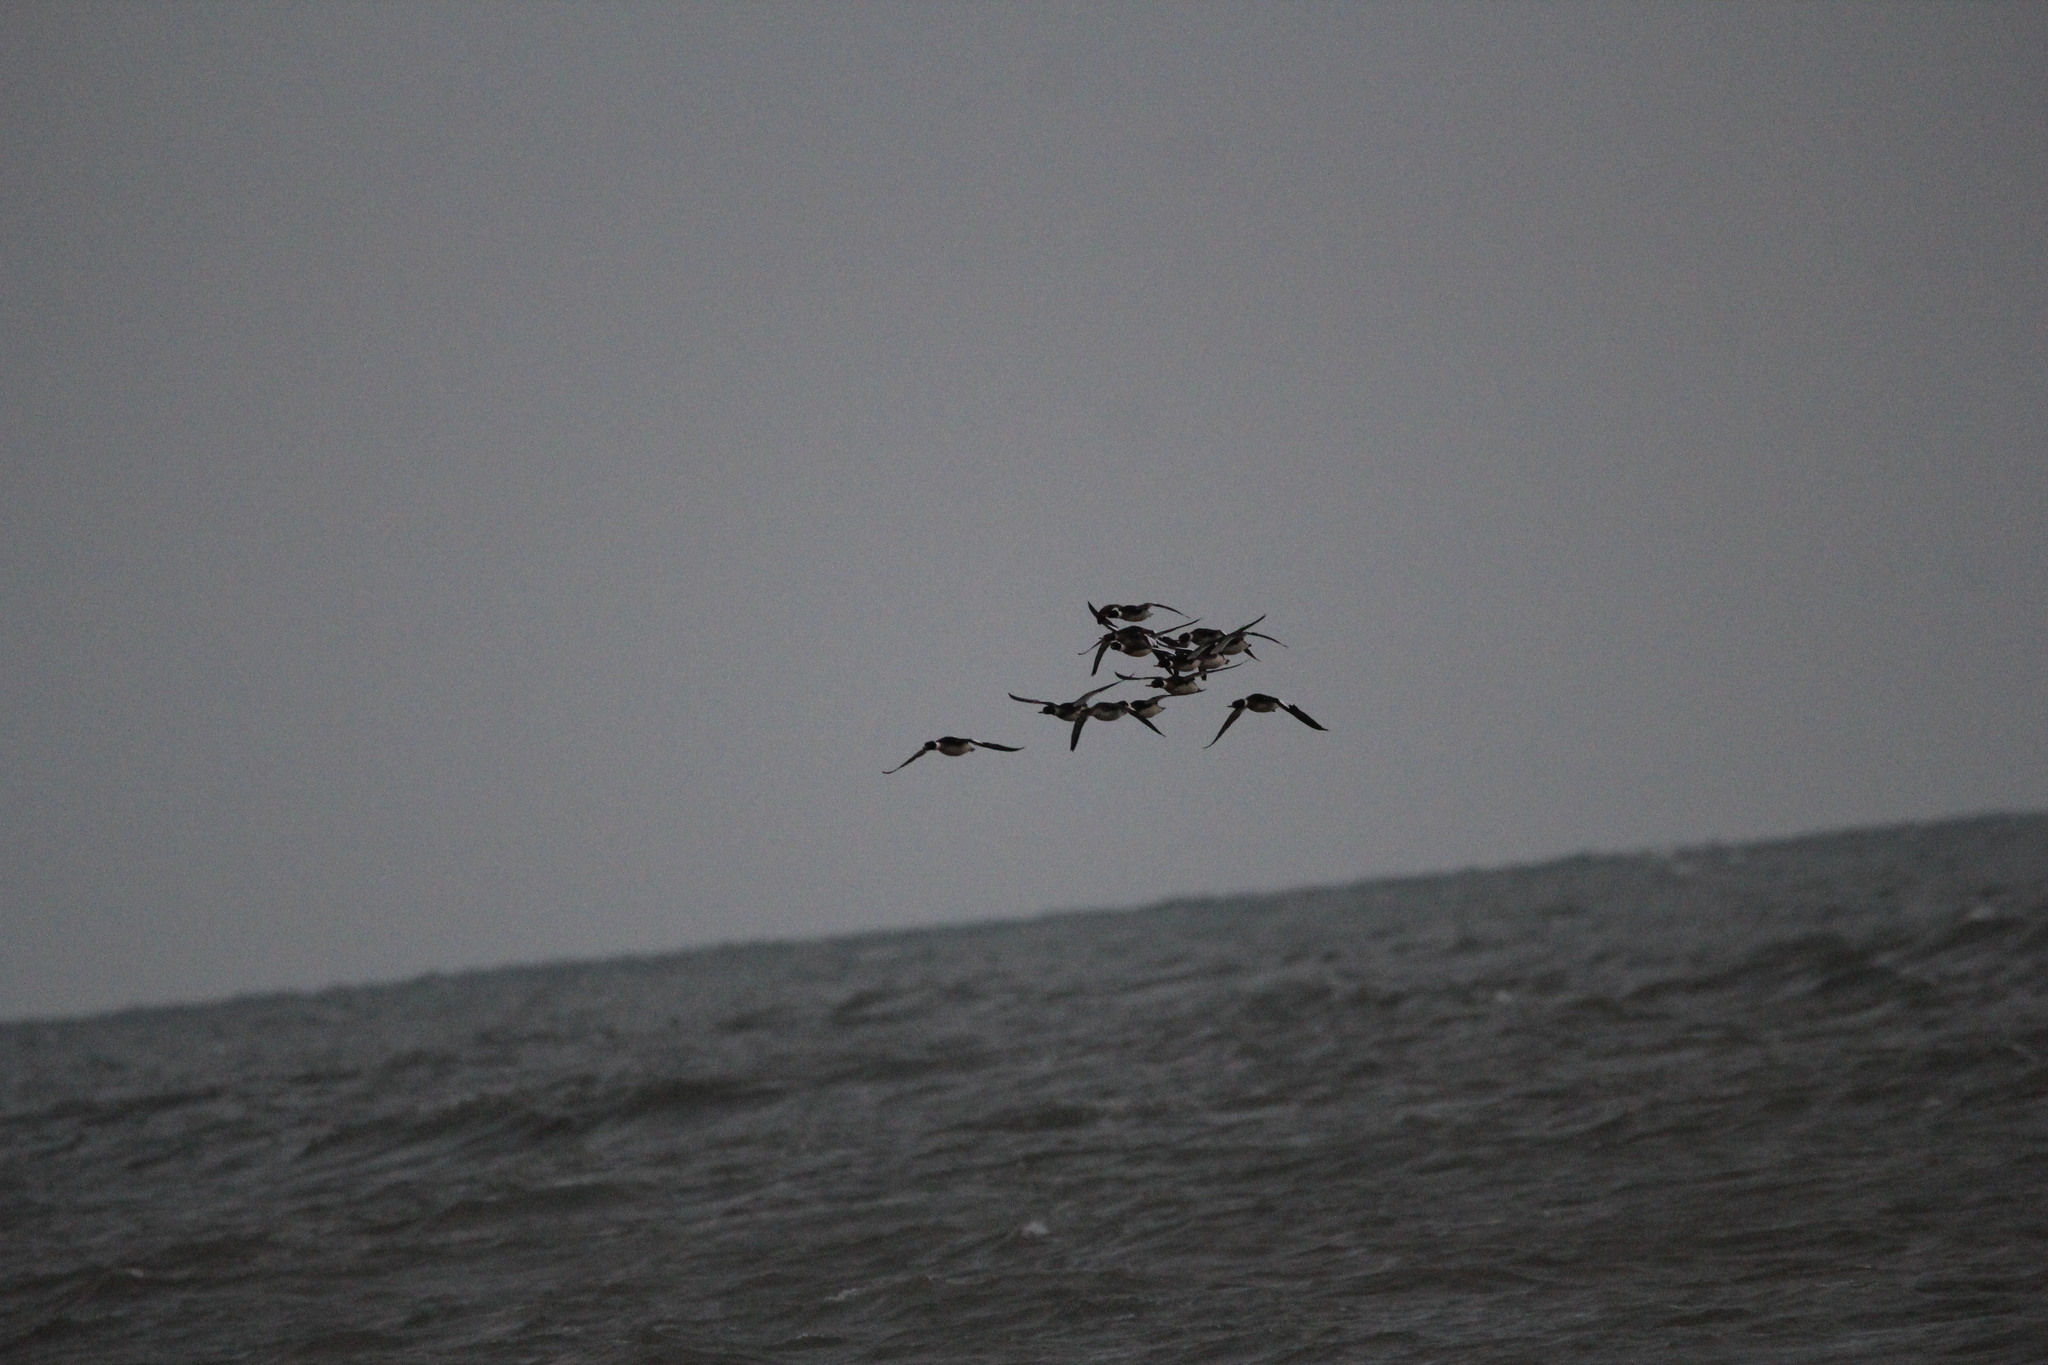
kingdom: Animalia
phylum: Chordata
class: Aves
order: Anseriformes
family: Anatidae
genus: Mergus
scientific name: Mergus serrator
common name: Red-breasted merganser
